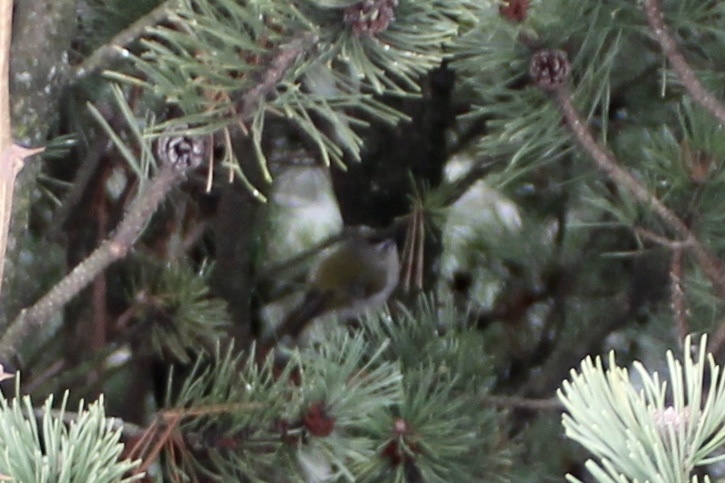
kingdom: Animalia
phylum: Chordata
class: Aves
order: Passeriformes
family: Regulidae
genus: Regulus
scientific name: Regulus satrapa
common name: Golden-crowned kinglet
